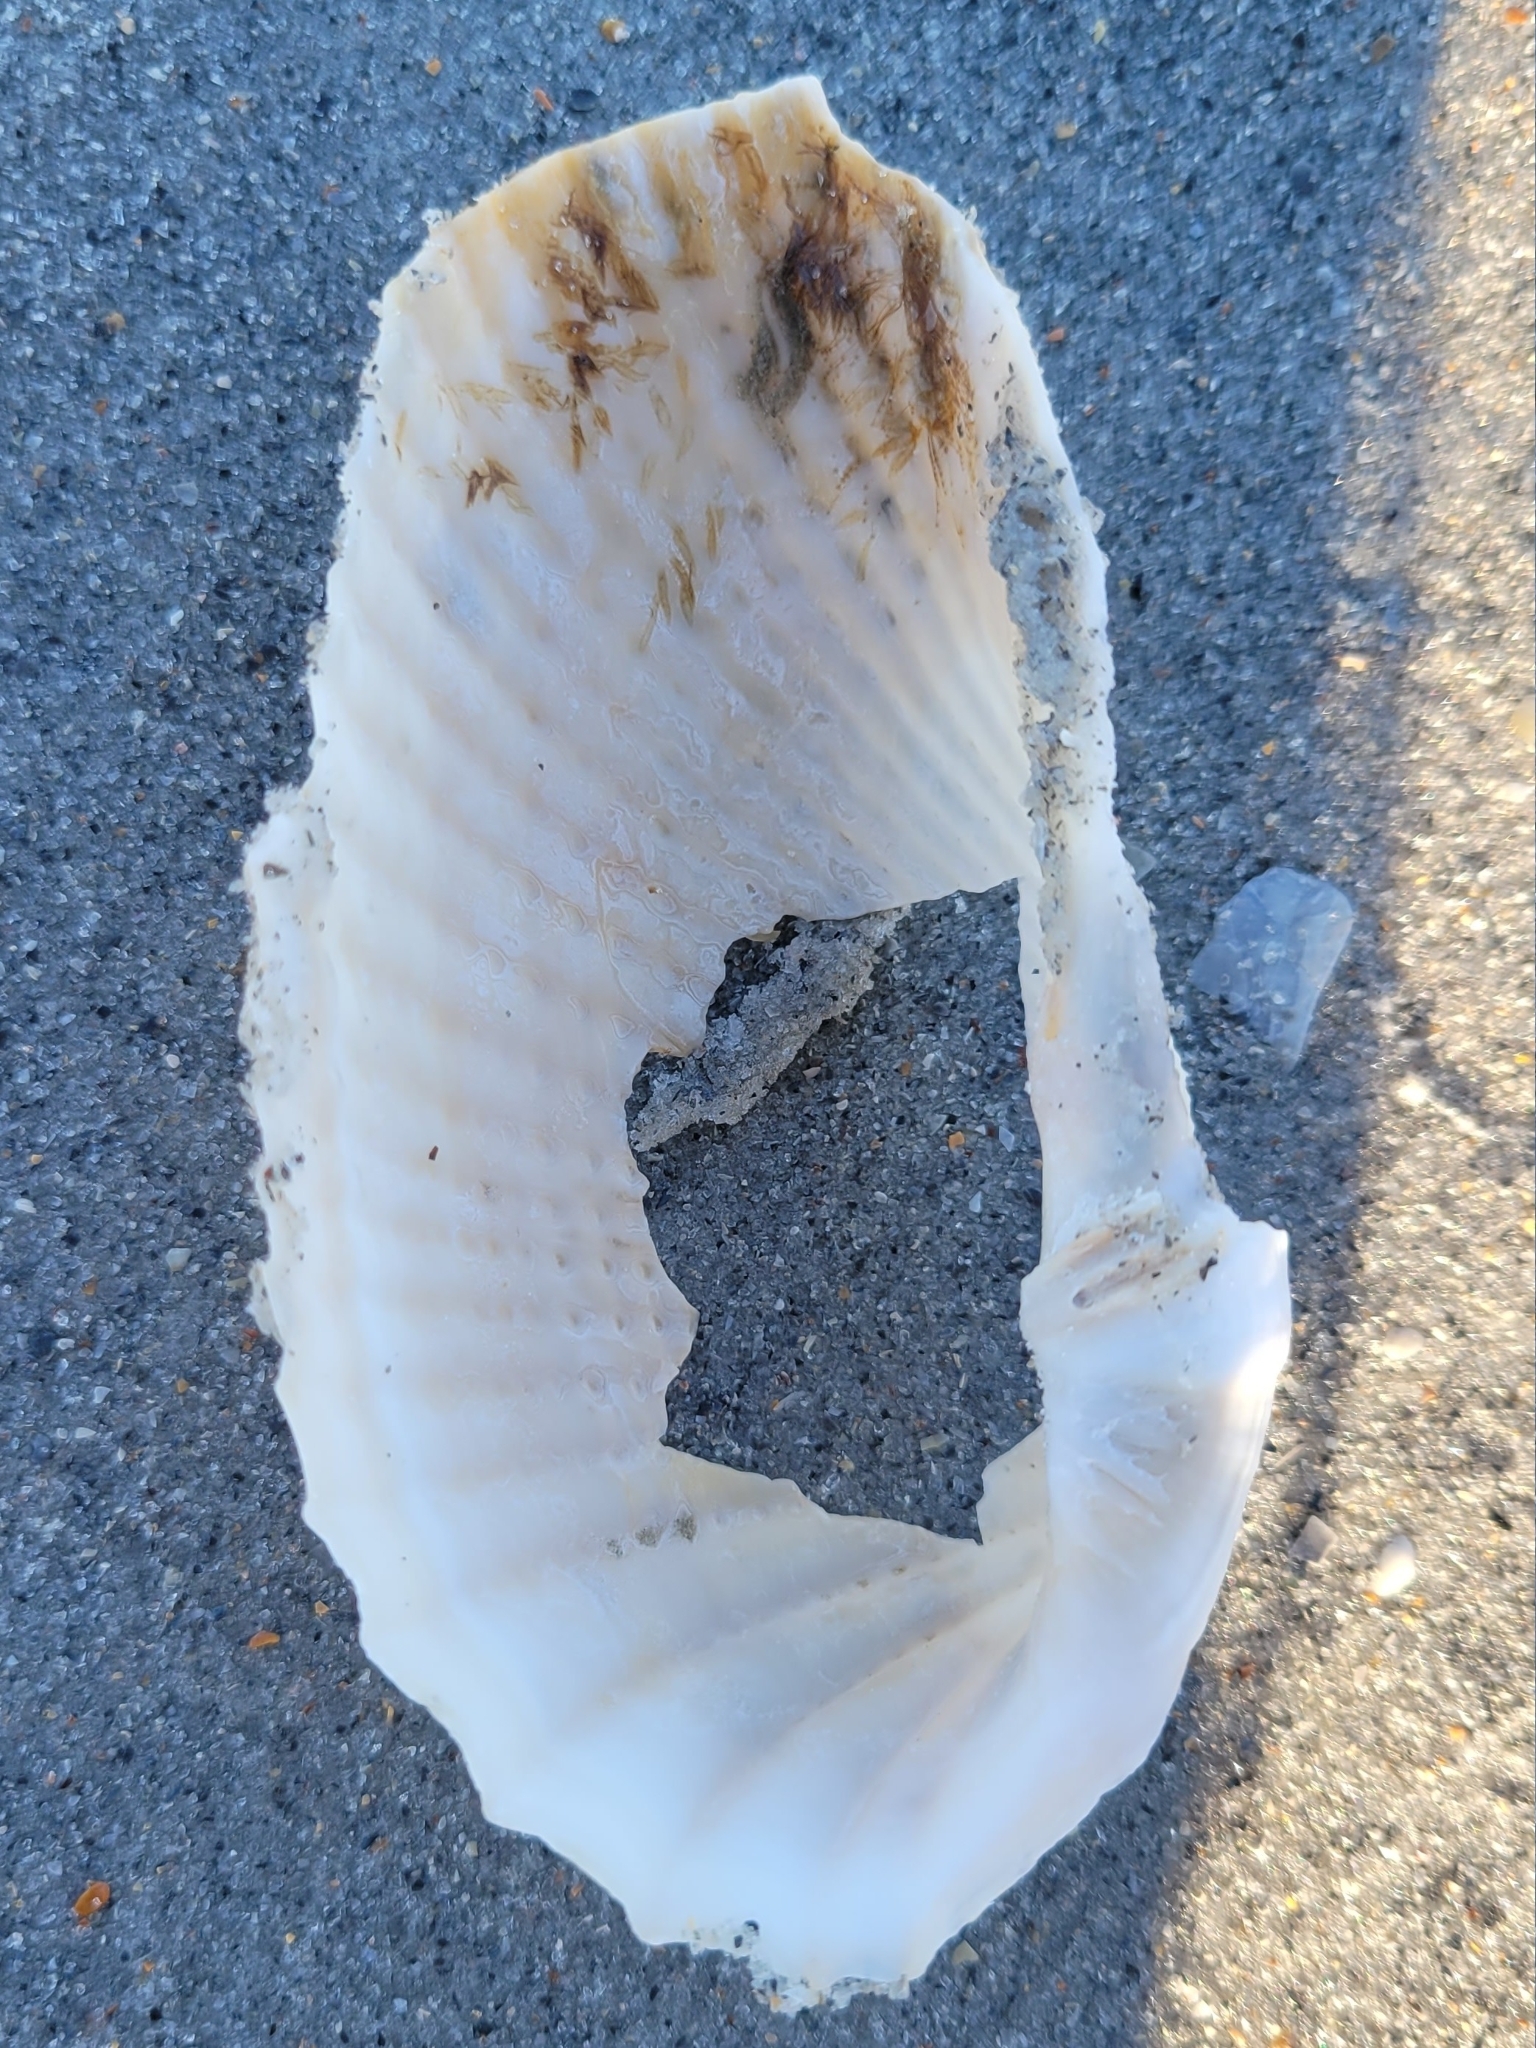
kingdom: Animalia
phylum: Mollusca
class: Bivalvia
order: Myida
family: Pholadidae
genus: Cyrtopleura
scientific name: Cyrtopleura costata
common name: Angel wing
